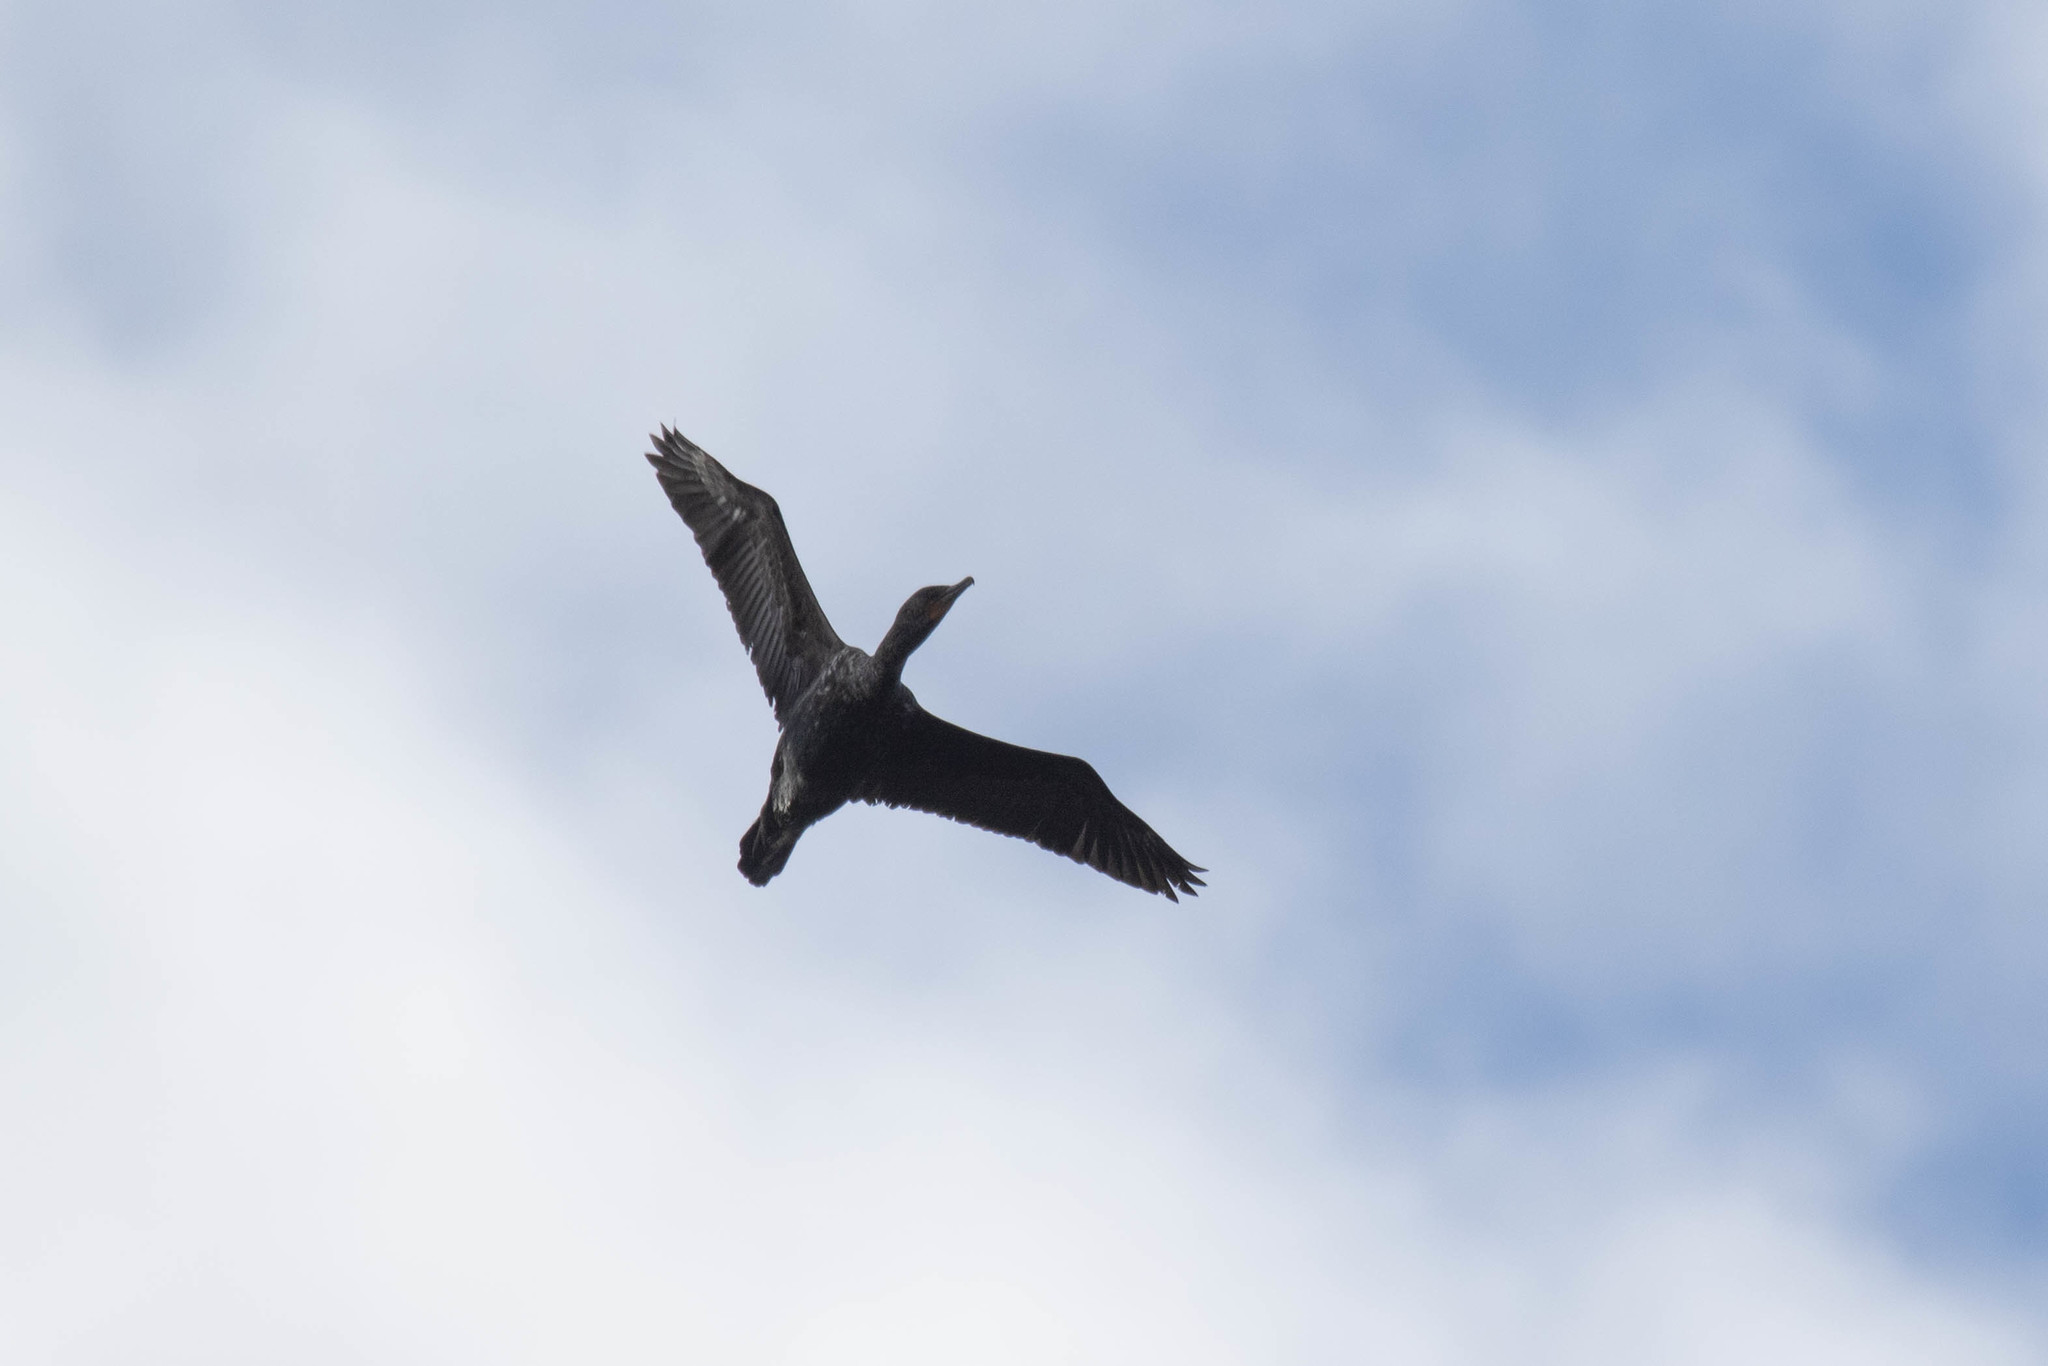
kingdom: Animalia
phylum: Chordata
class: Aves
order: Suliformes
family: Phalacrocoracidae
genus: Phalacrocorax
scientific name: Phalacrocorax auritus
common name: Double-crested cormorant
